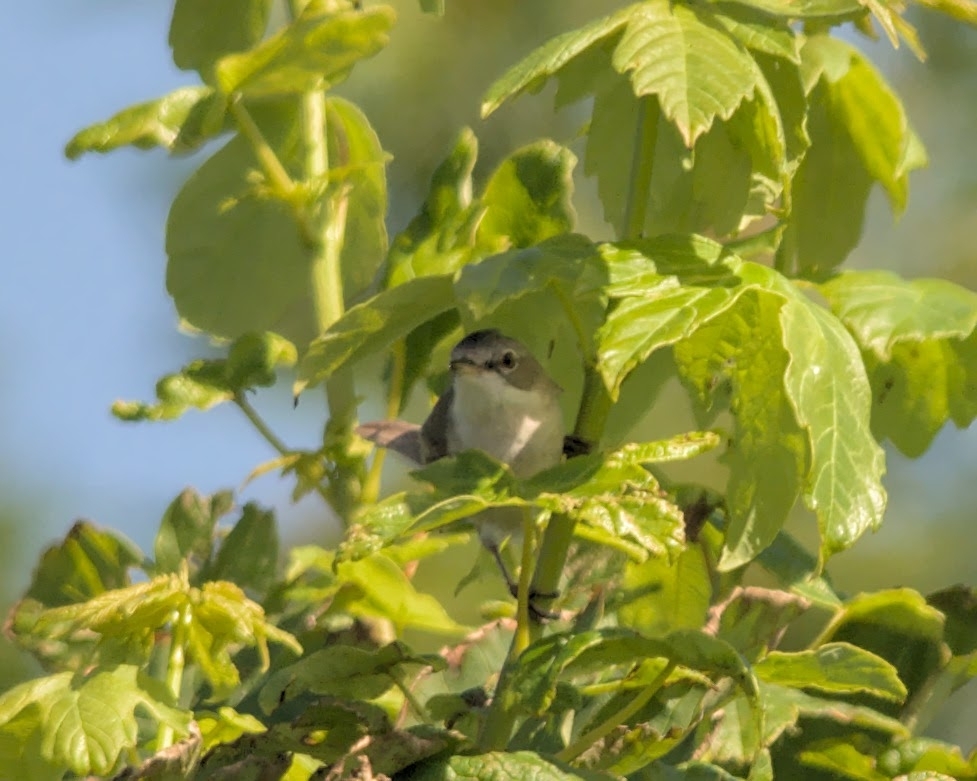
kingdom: Animalia
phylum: Chordata
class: Aves
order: Passeriformes
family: Sylviidae
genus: Sylvia
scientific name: Sylvia communis
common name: Common whitethroat
